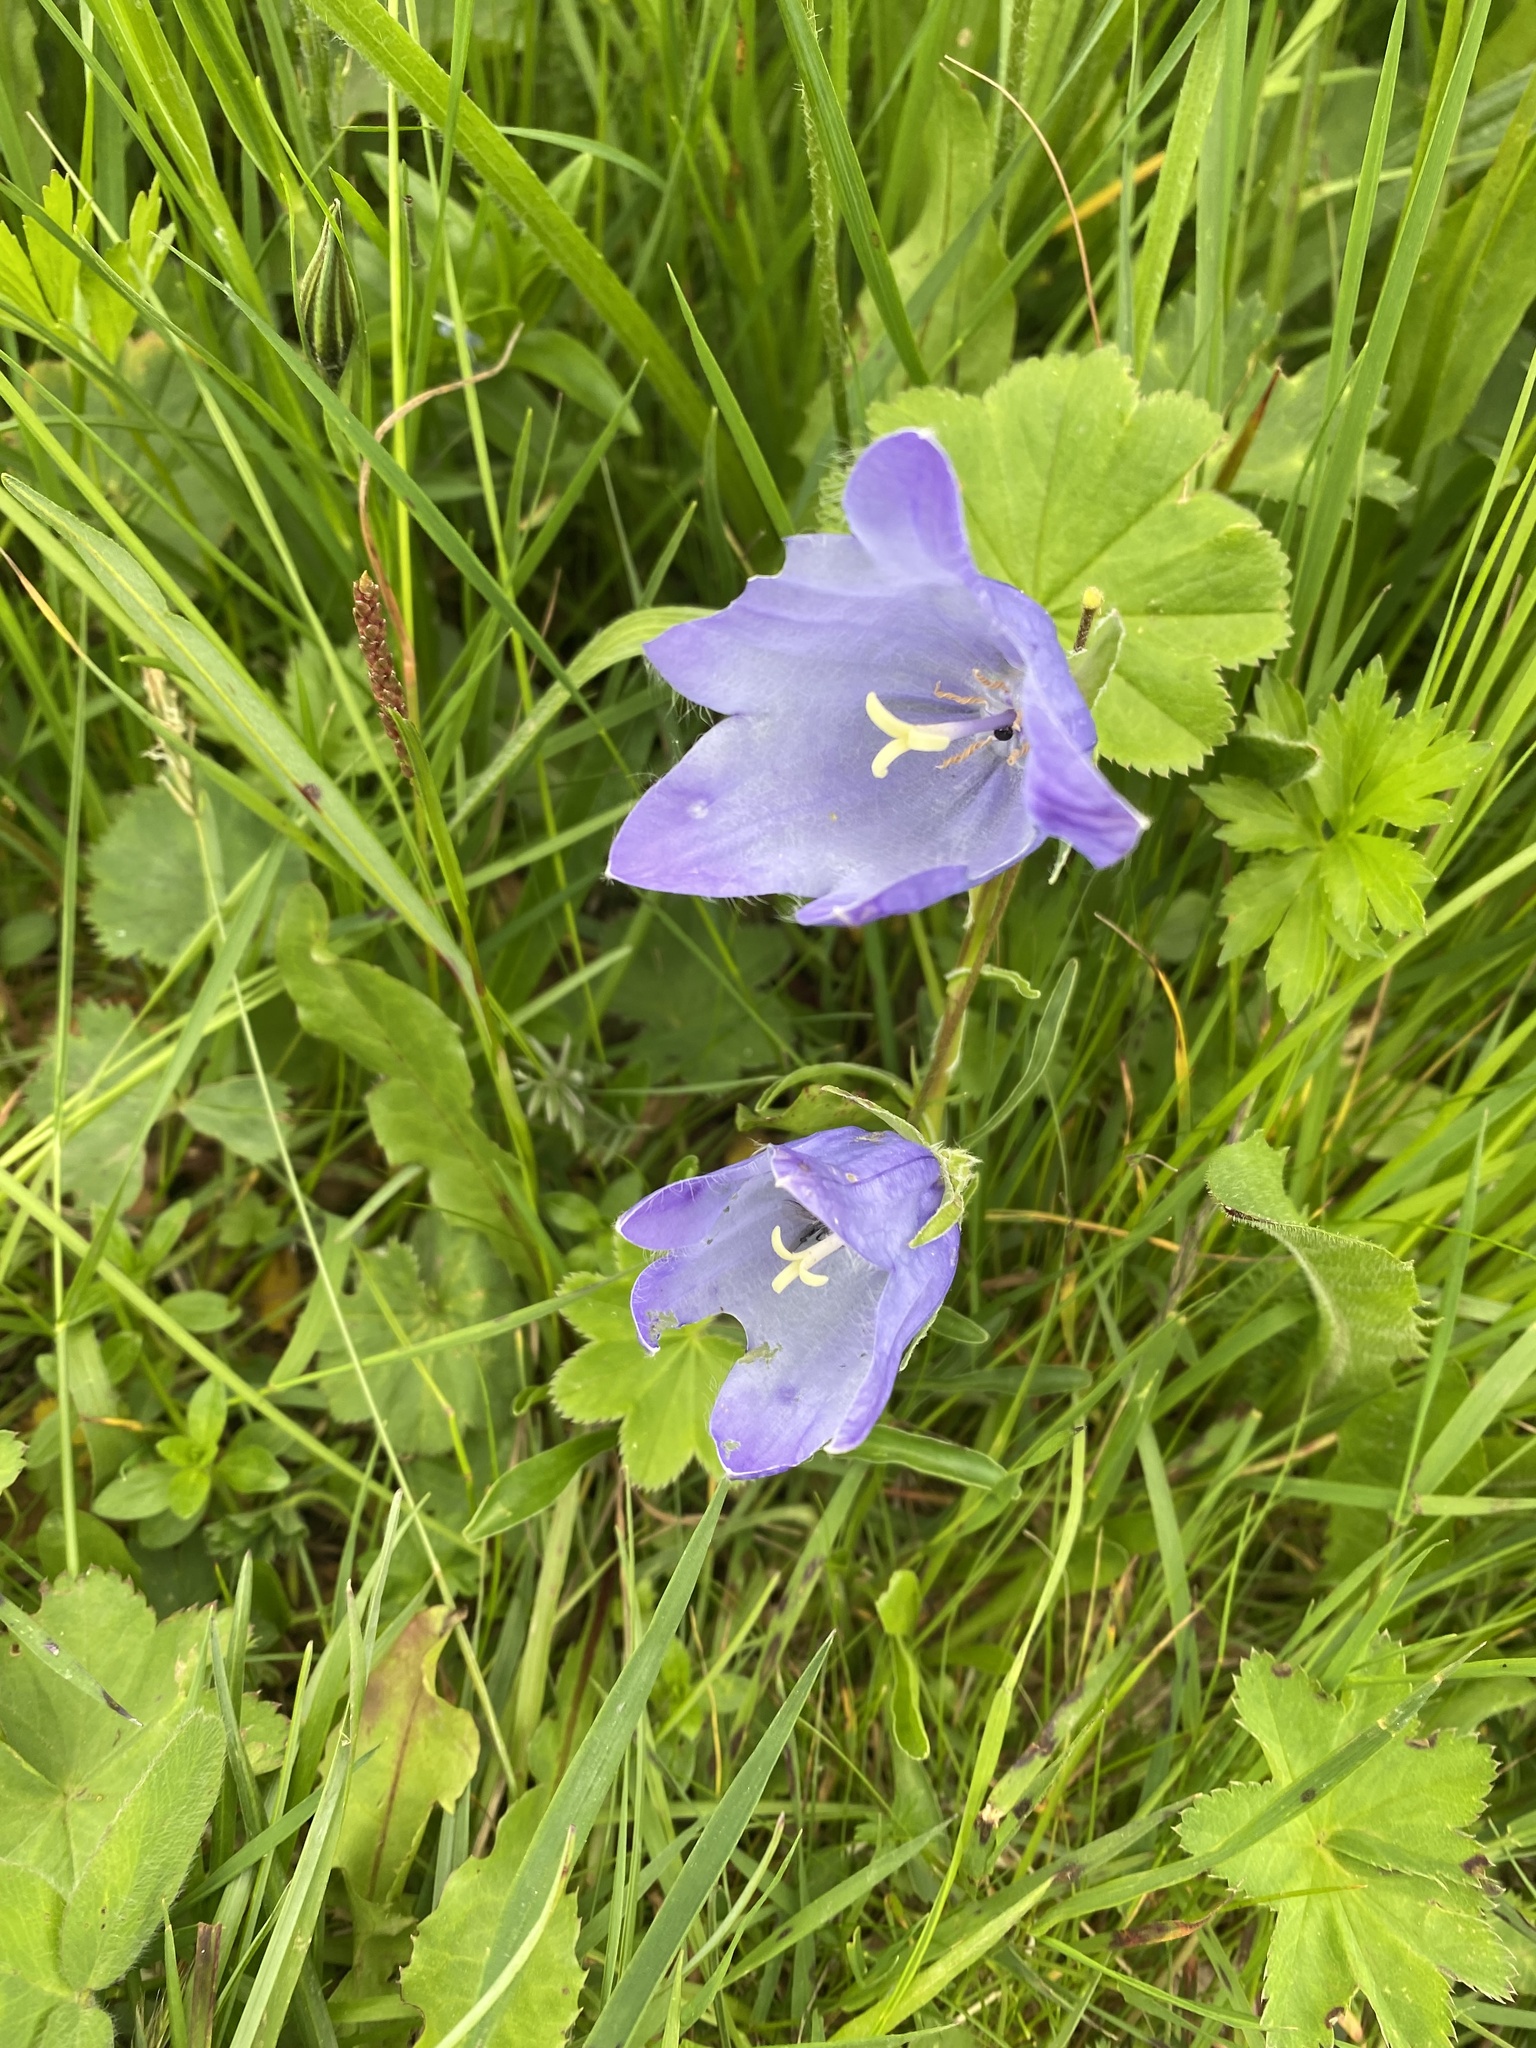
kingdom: Plantae
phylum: Tracheophyta
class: Magnoliopsida
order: Asterales
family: Campanulaceae
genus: Campanula
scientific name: Campanula tridentata
